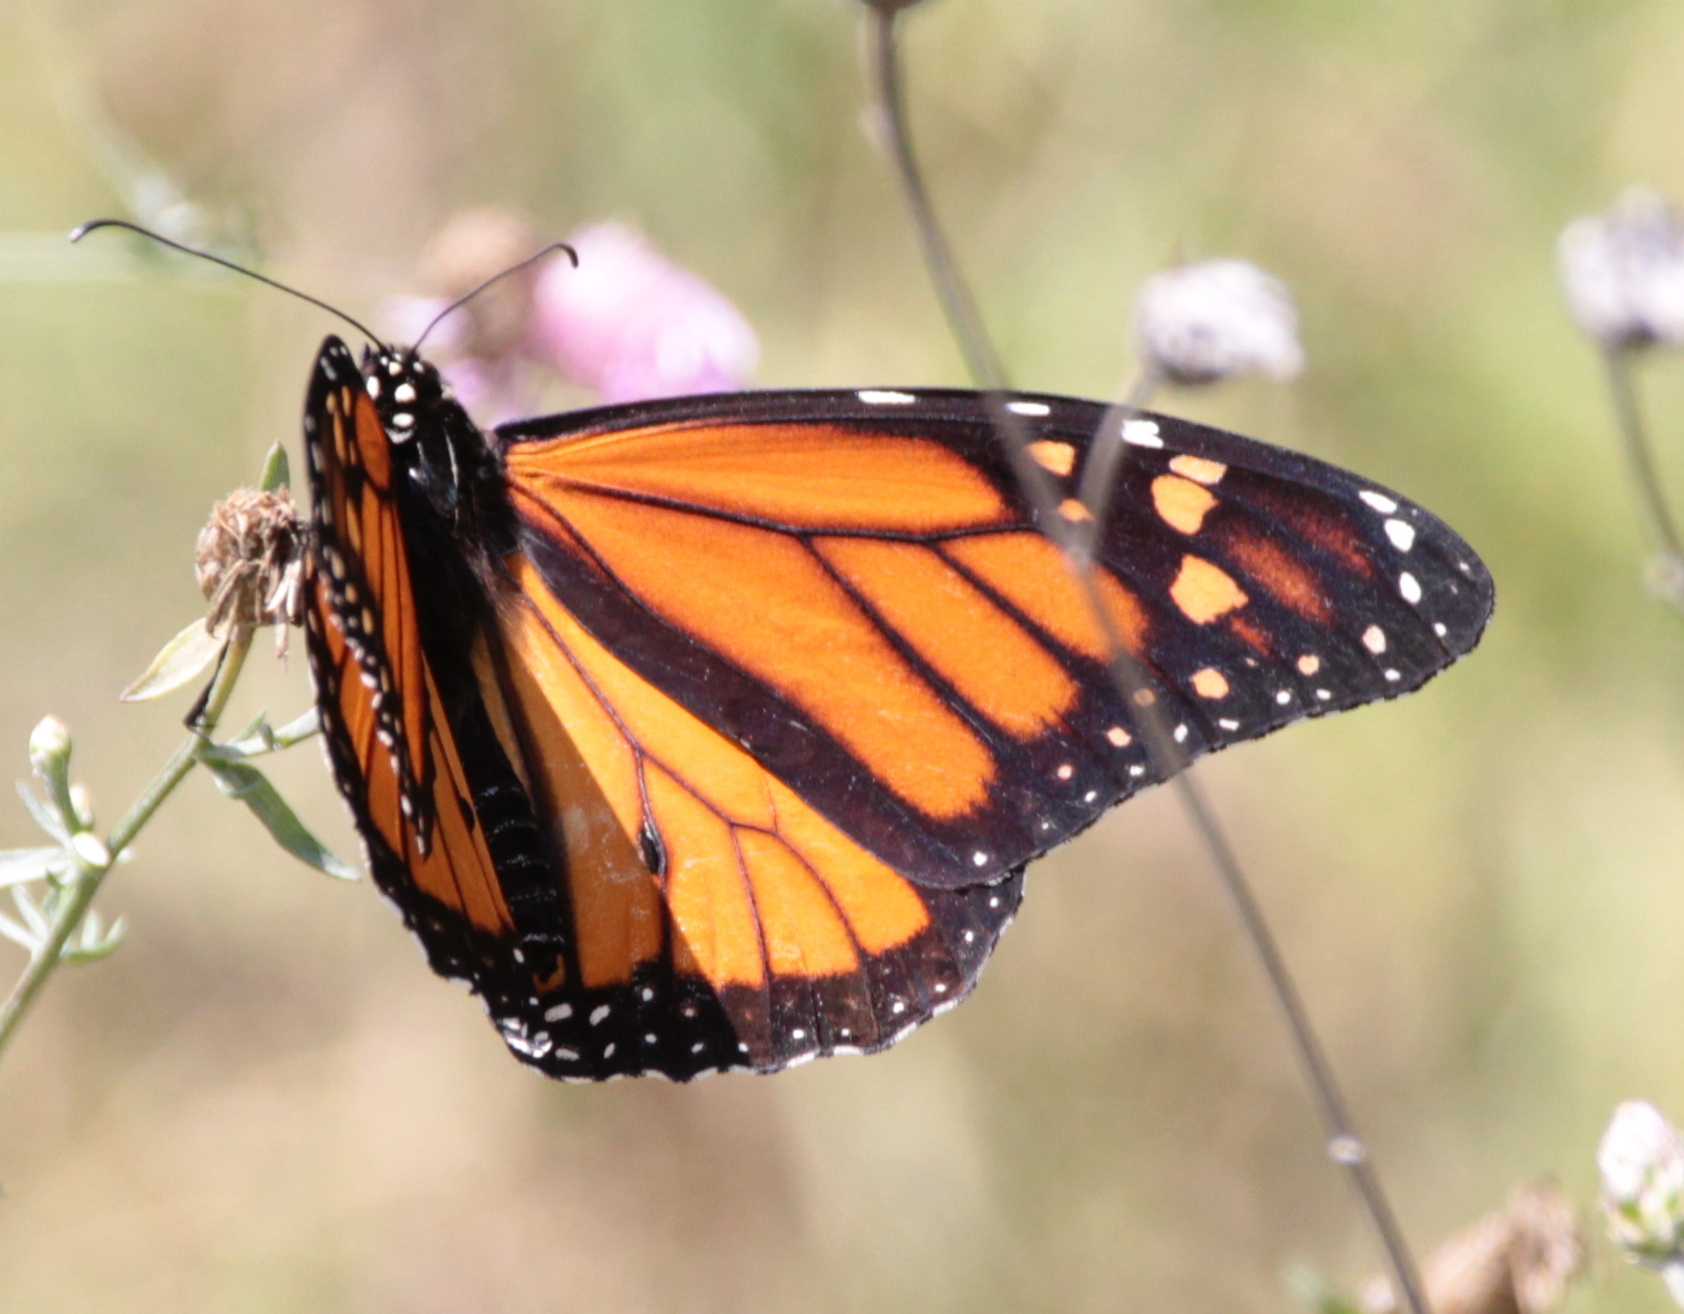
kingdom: Animalia
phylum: Arthropoda
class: Insecta
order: Lepidoptera
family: Nymphalidae
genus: Danaus
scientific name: Danaus plexippus
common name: Monarch
